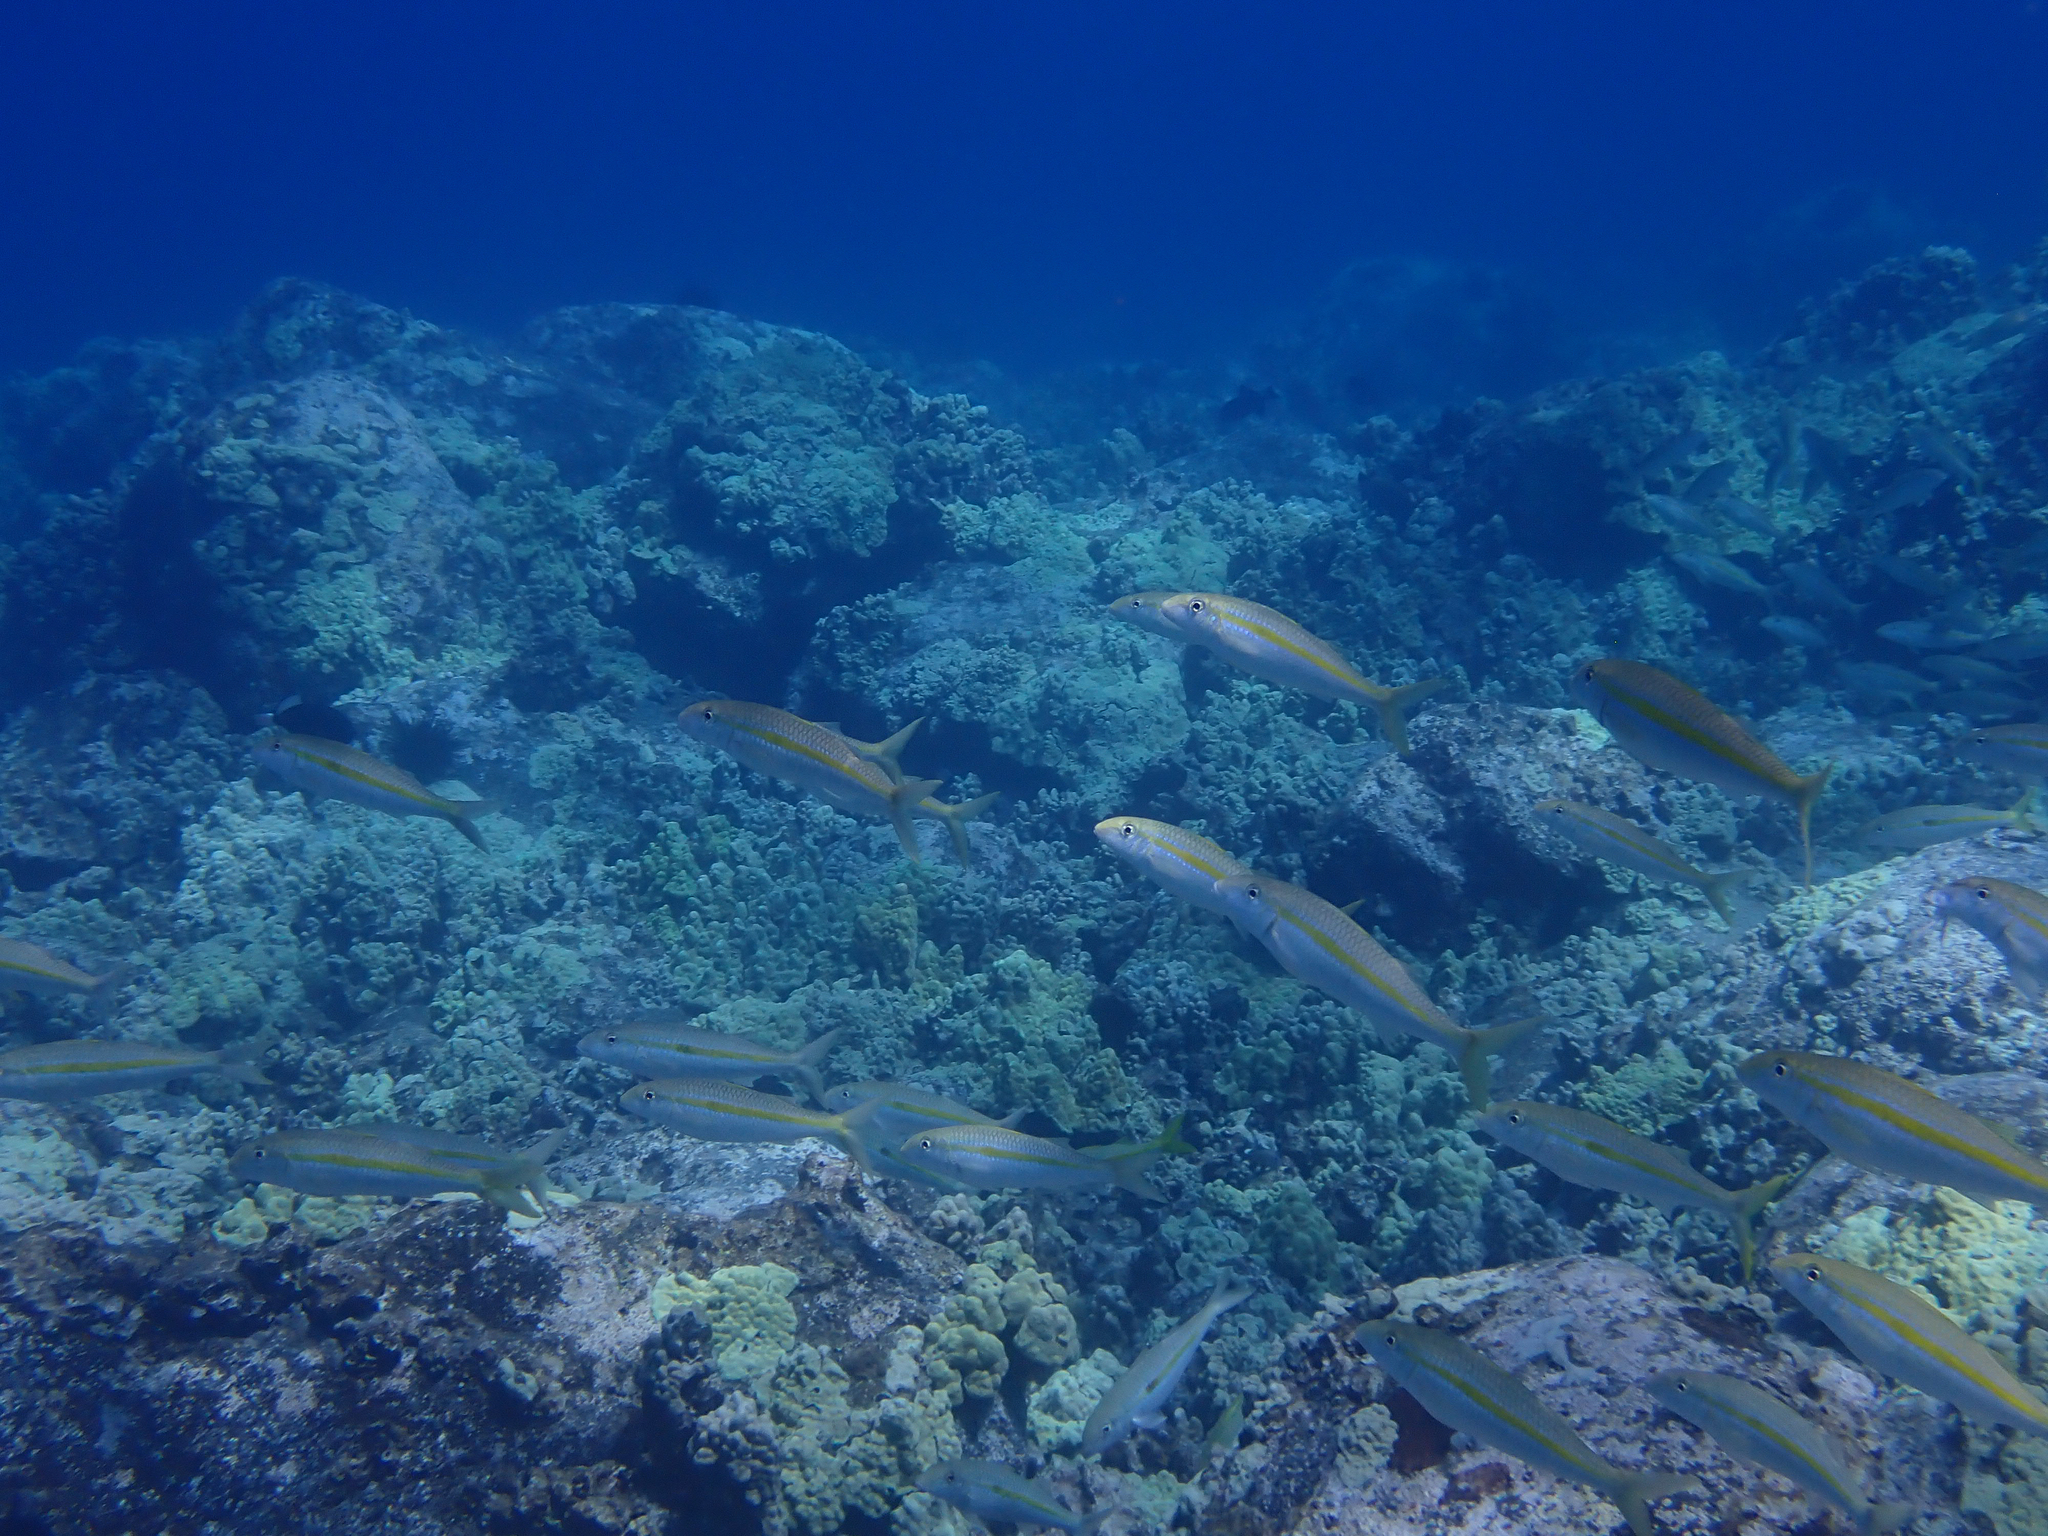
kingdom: Animalia
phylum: Chordata
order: Perciformes
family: Mullidae
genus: Mulloidichthys
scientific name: Mulloidichthys flavolineatus
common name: Yellowstripe goatfish
